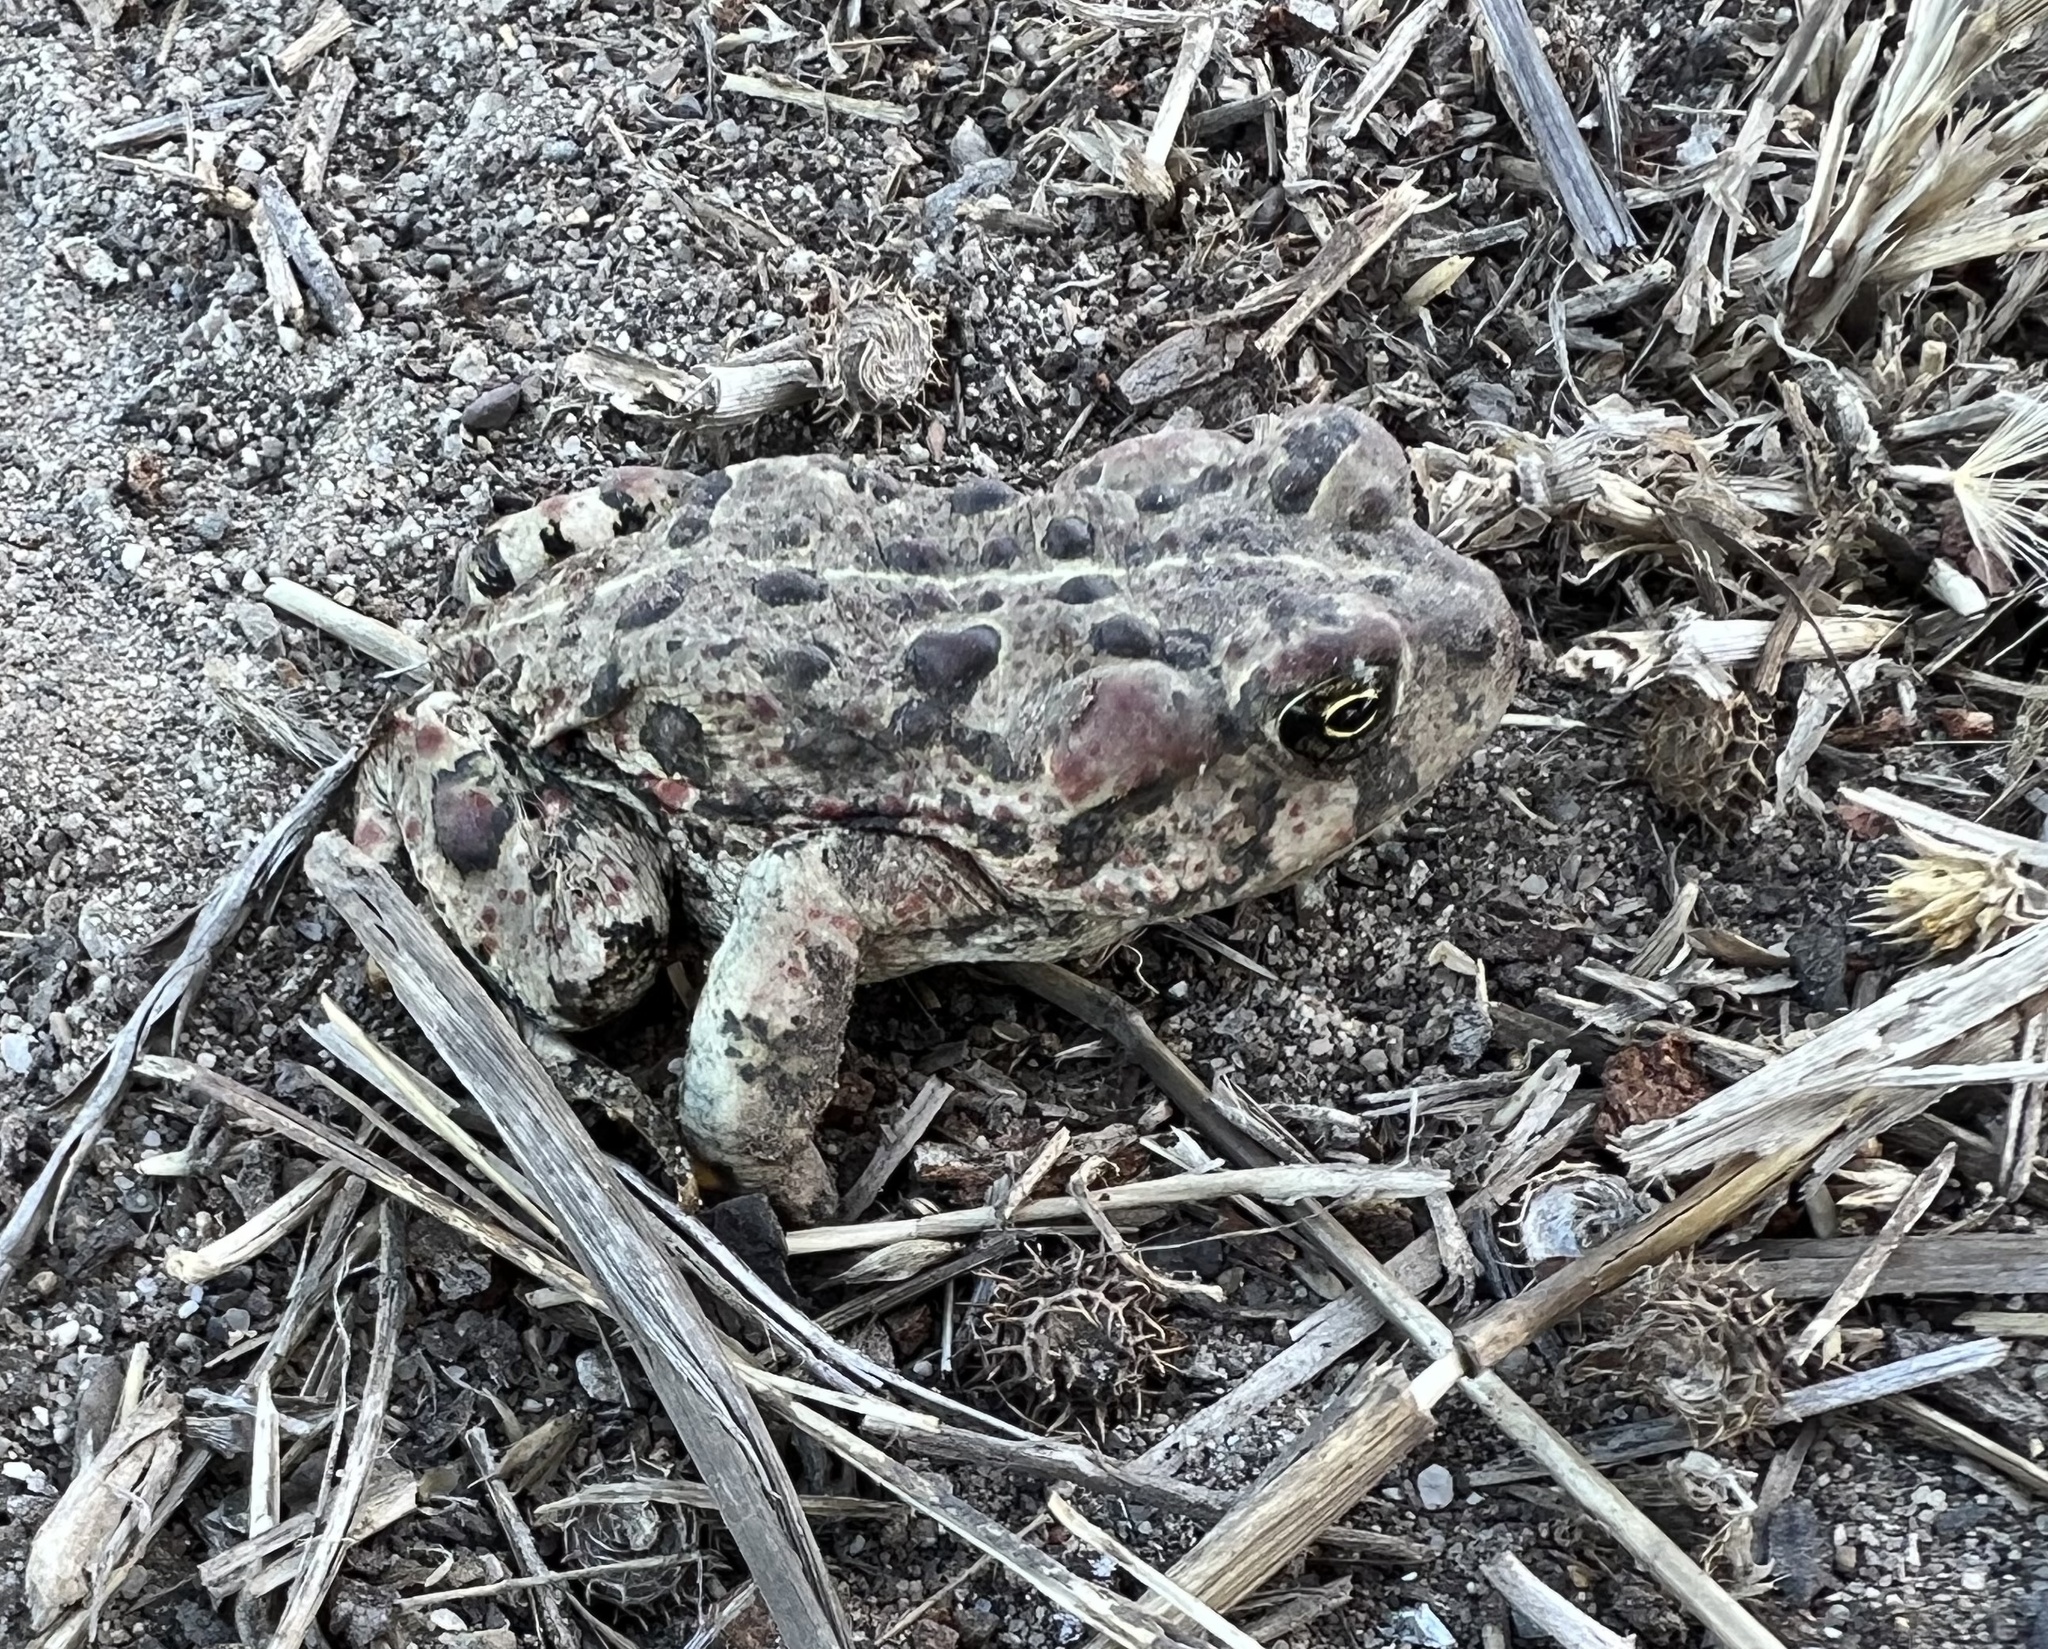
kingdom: Animalia
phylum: Chordata
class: Amphibia
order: Anura
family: Bufonidae
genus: Anaxyrus
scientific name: Anaxyrus boreas
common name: Western toad
